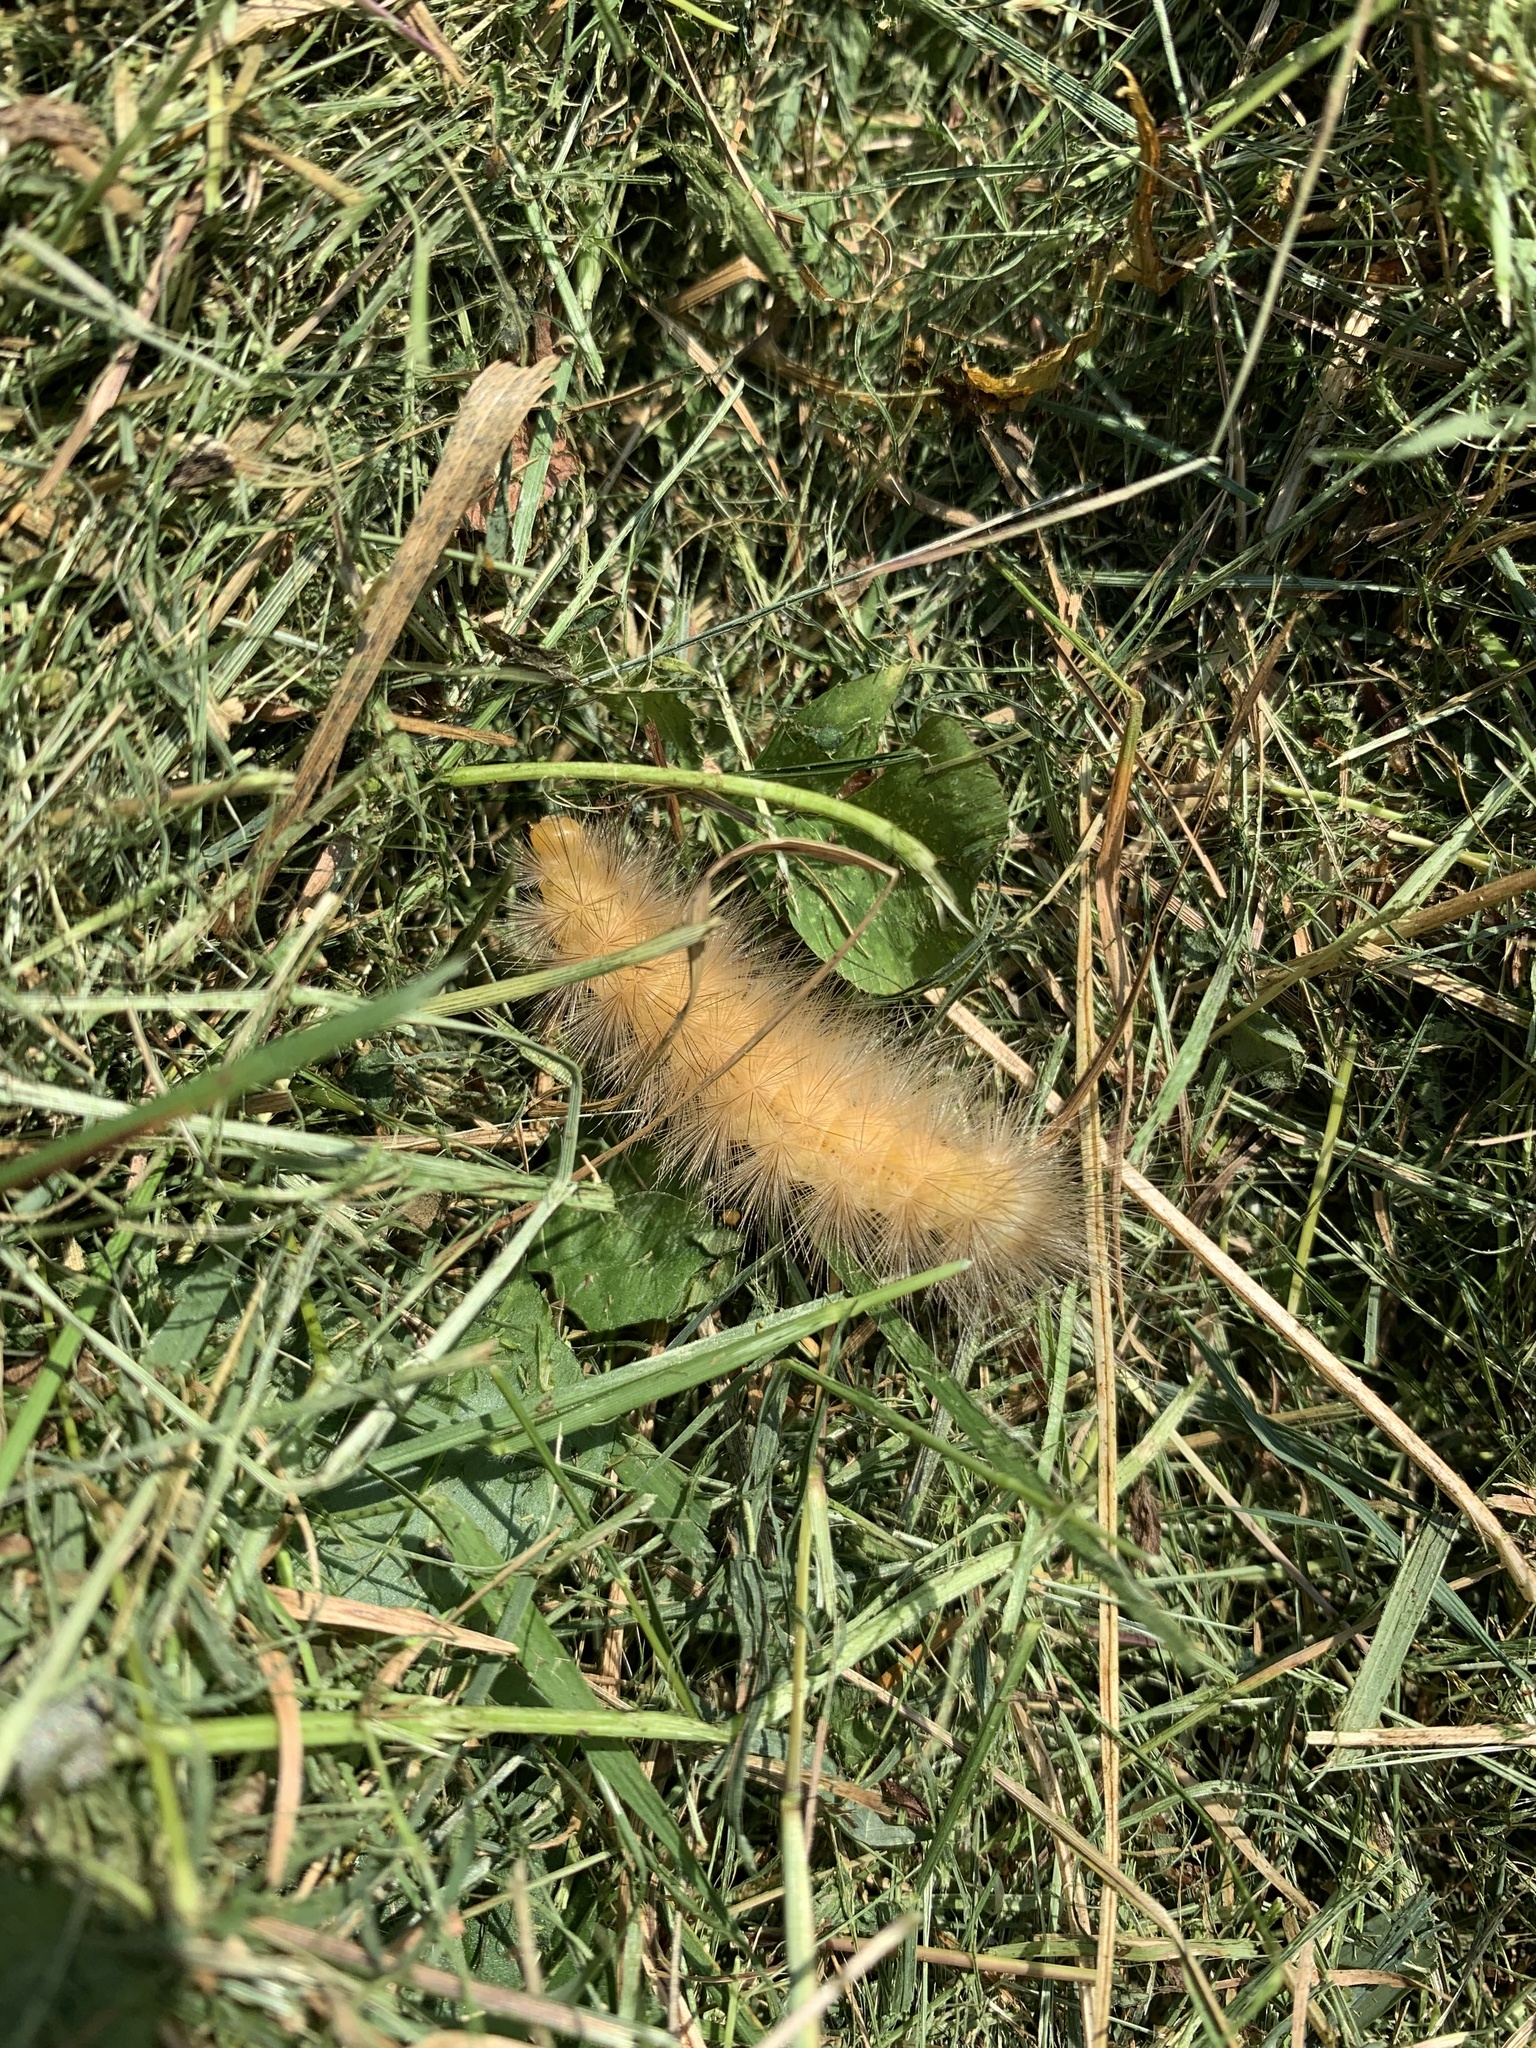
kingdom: Animalia
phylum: Arthropoda
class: Insecta
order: Lepidoptera
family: Erebidae
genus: Spilosoma
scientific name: Spilosoma virginica
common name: Virginia tiger moth
